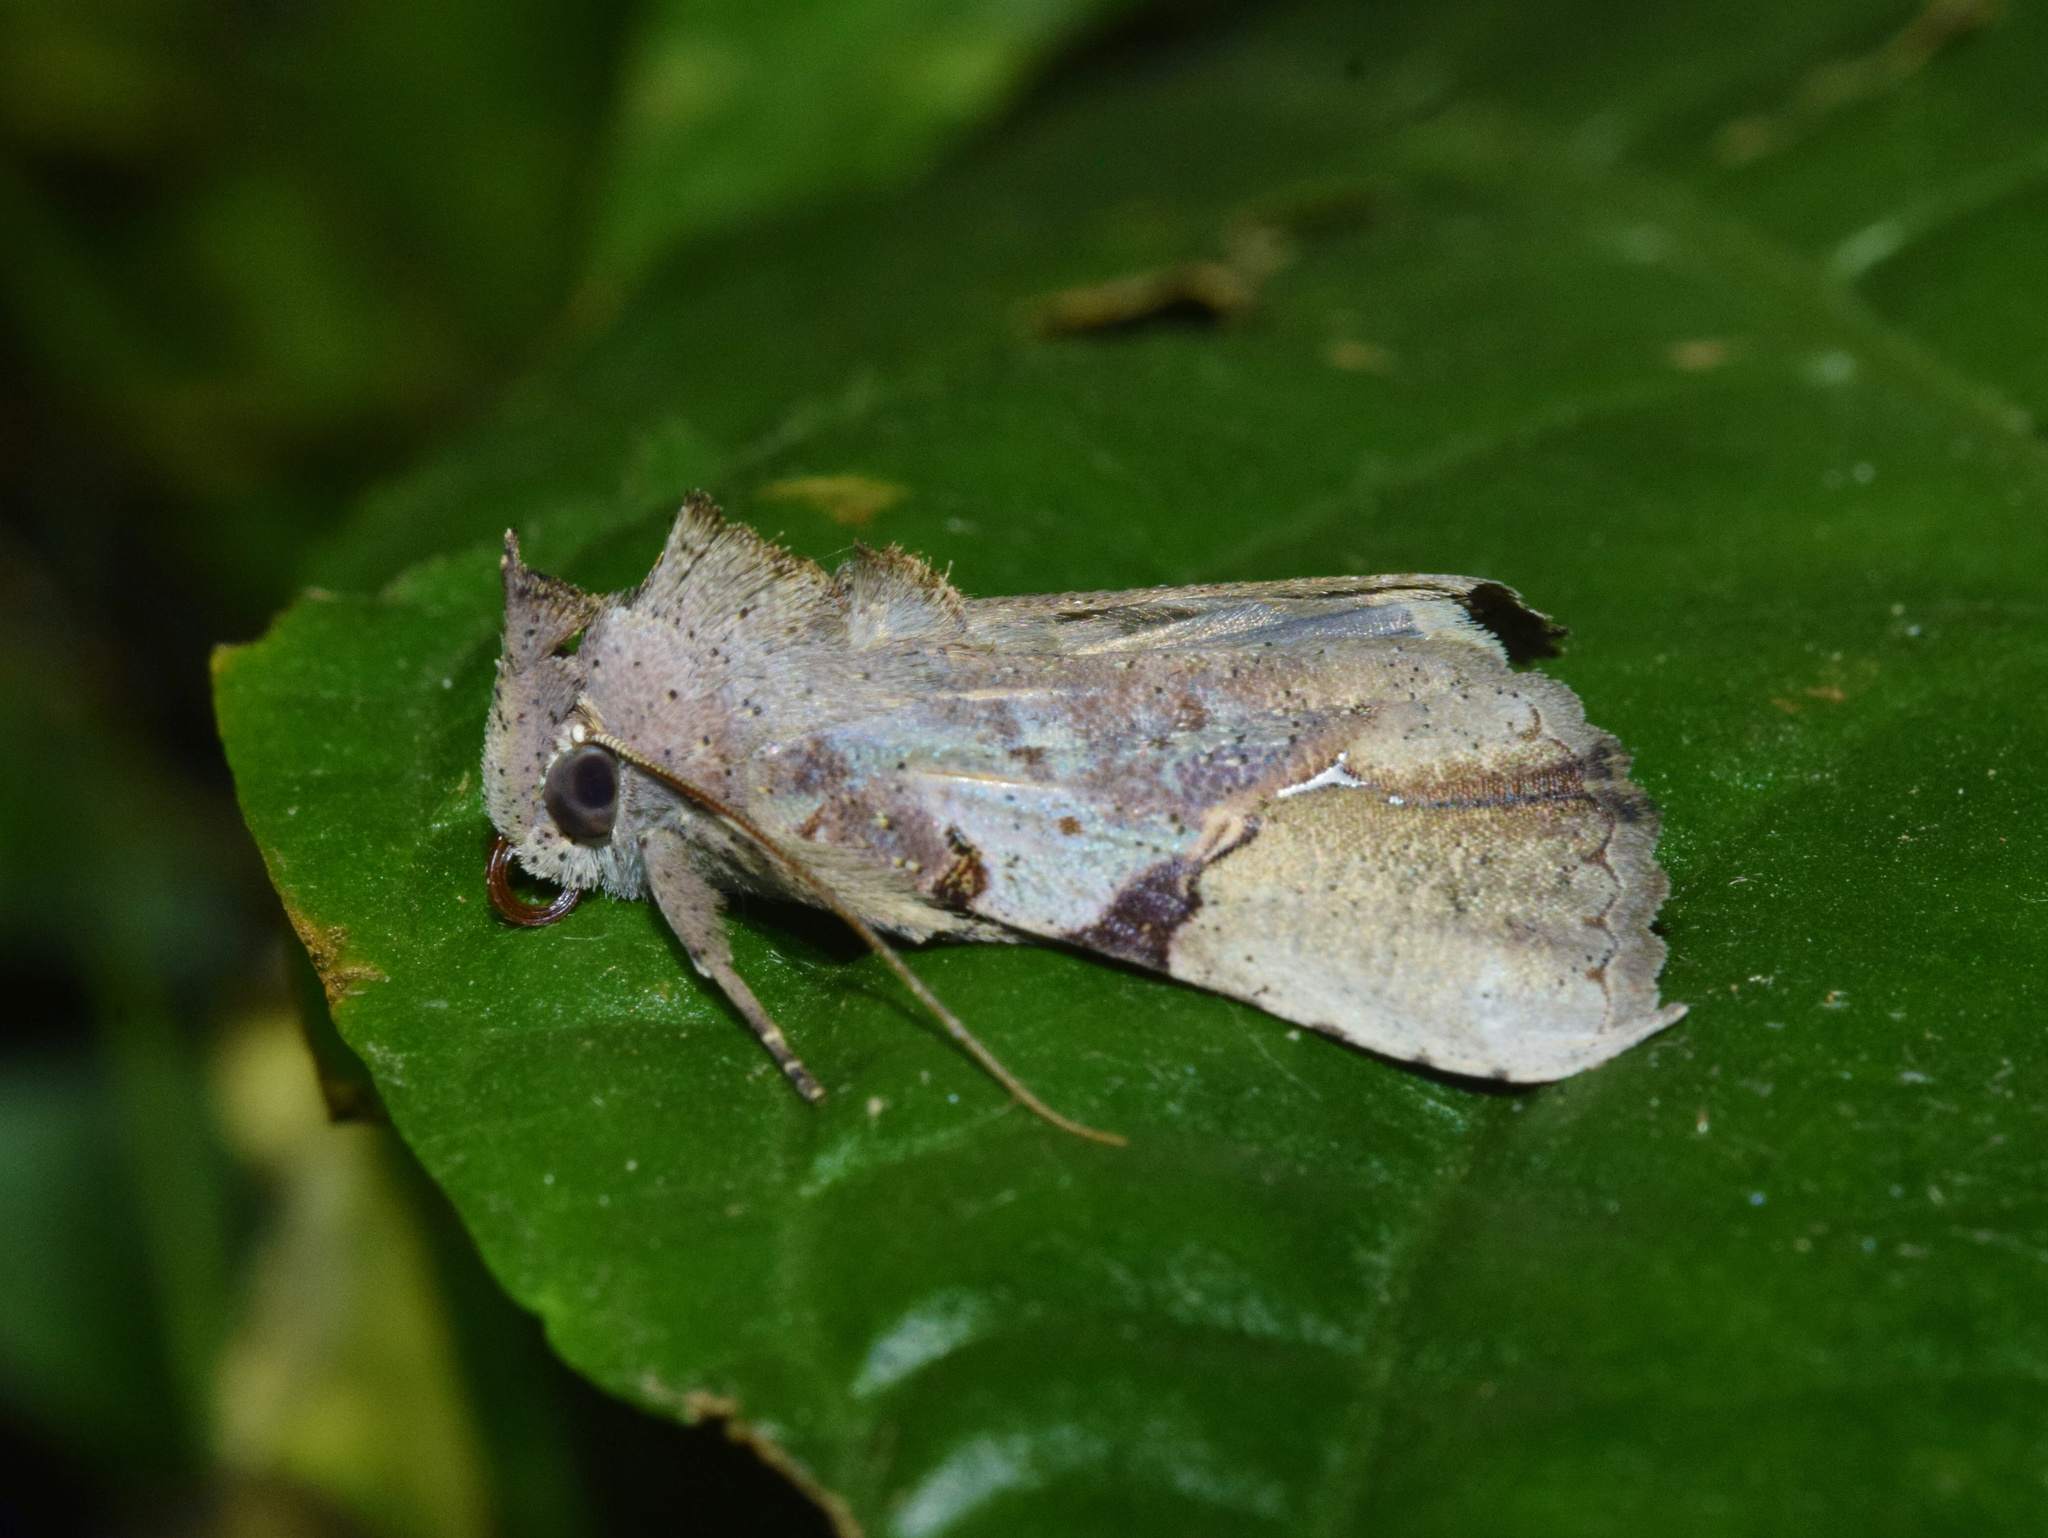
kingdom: Animalia
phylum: Arthropoda
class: Insecta
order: Lepidoptera
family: Erebidae
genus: Meliaba
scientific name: Meliaba pelopsalis
